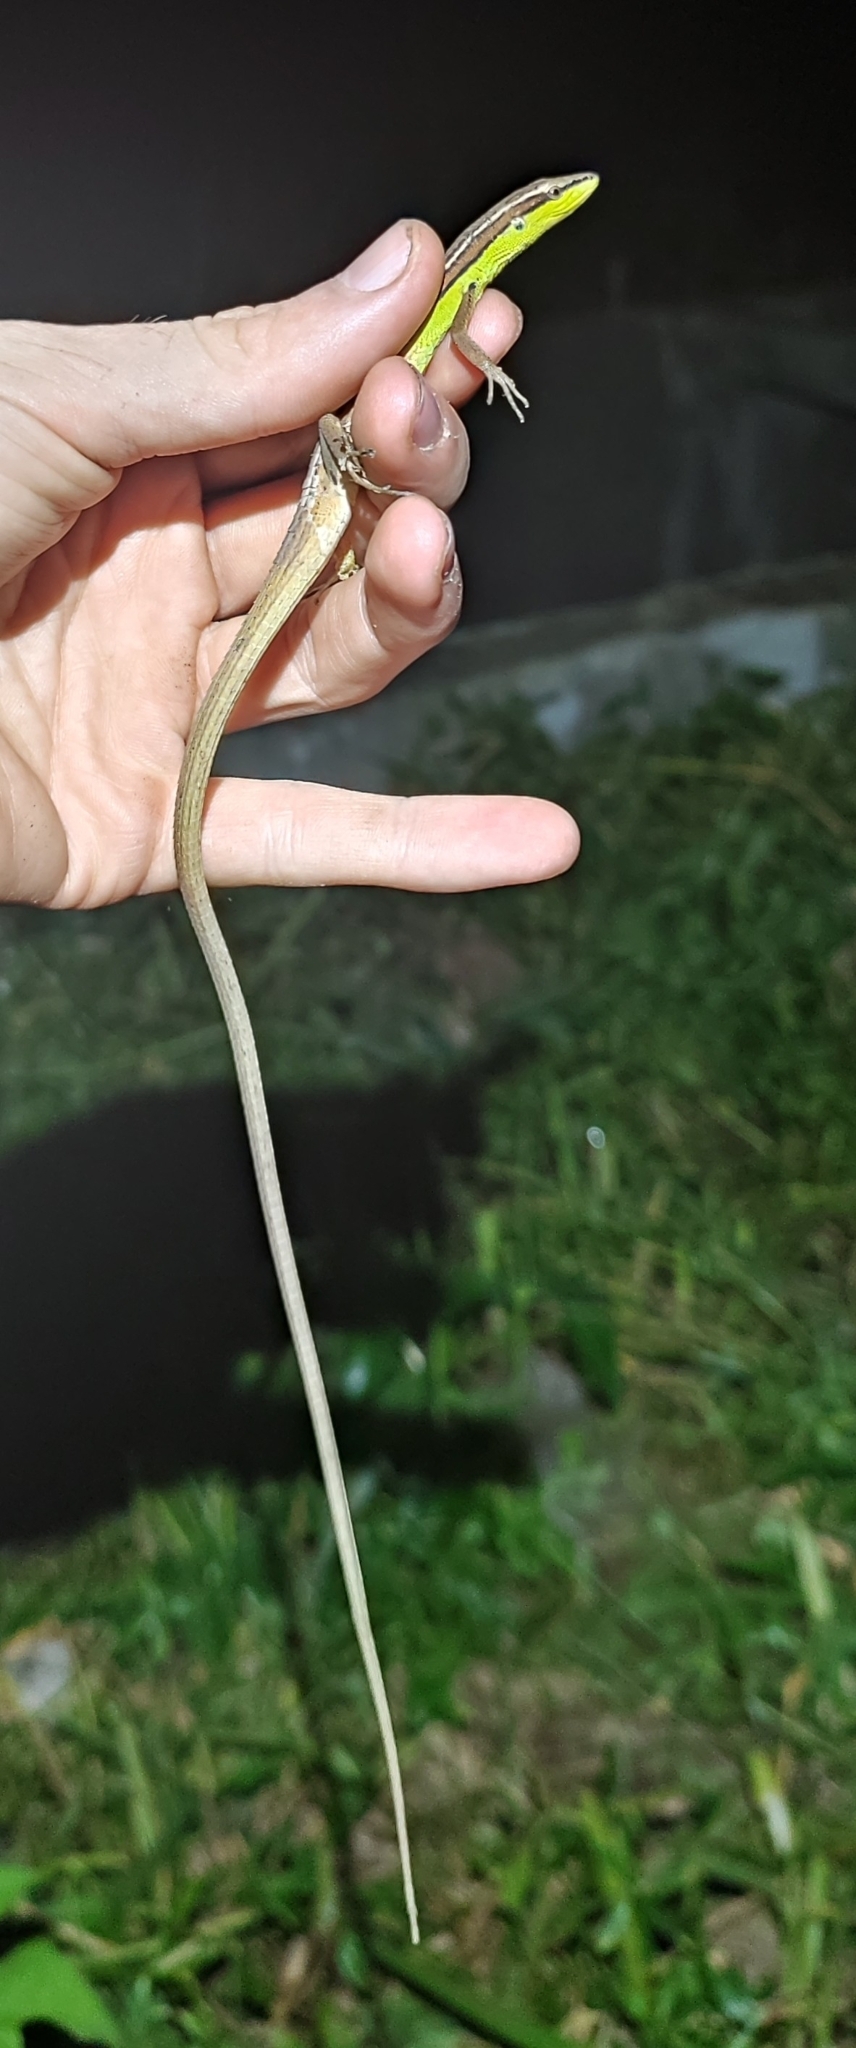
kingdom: Animalia
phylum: Chordata
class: Squamata
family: Lacertidae
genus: Takydromus
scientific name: Takydromus sexlineatus
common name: Asian grass lizard
